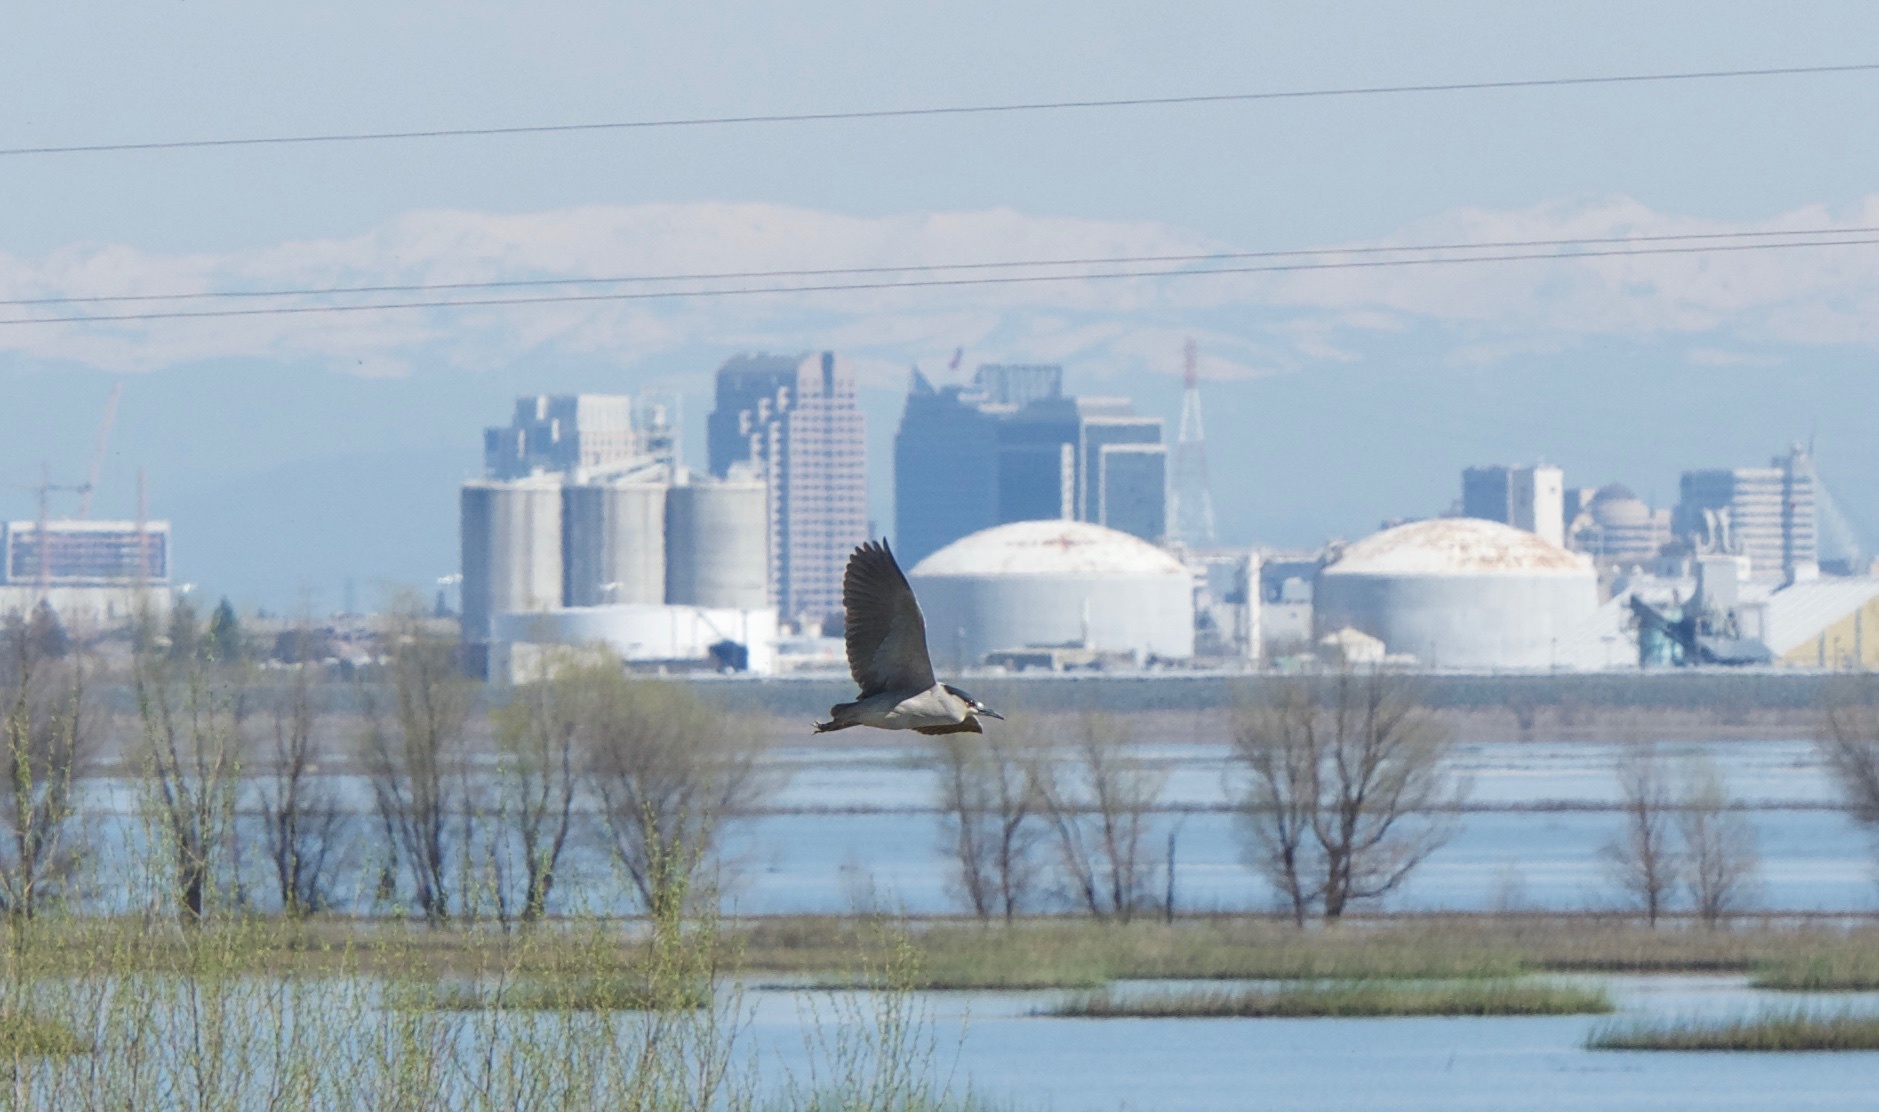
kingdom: Animalia
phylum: Chordata
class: Aves
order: Pelecaniformes
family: Ardeidae
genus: Nycticorax
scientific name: Nycticorax nycticorax
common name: Black-crowned night heron
